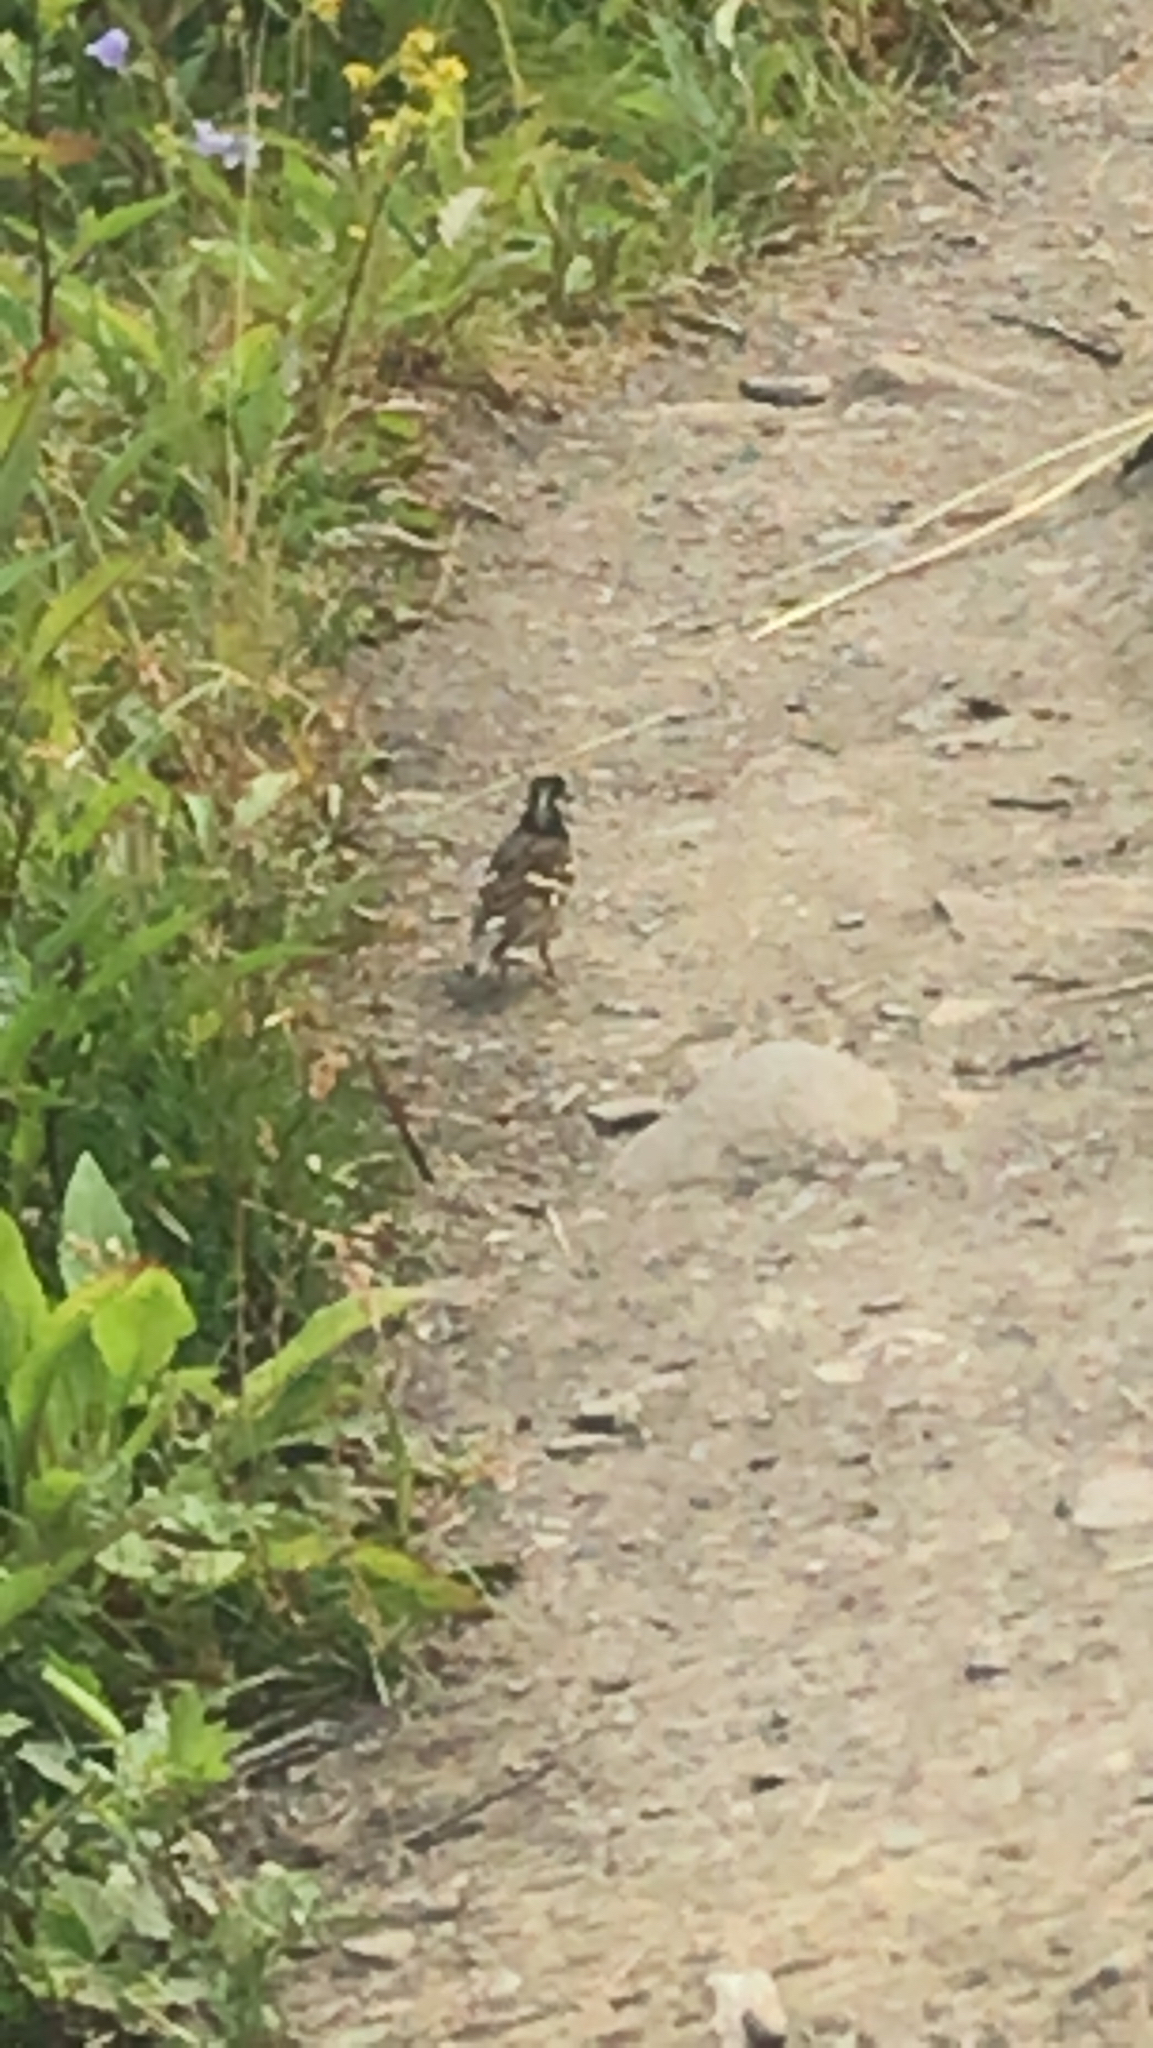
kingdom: Animalia
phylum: Chordata
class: Aves
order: Passeriformes
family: Fringillidae
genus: Fringilla
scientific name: Fringilla montifringilla
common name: Brambling
